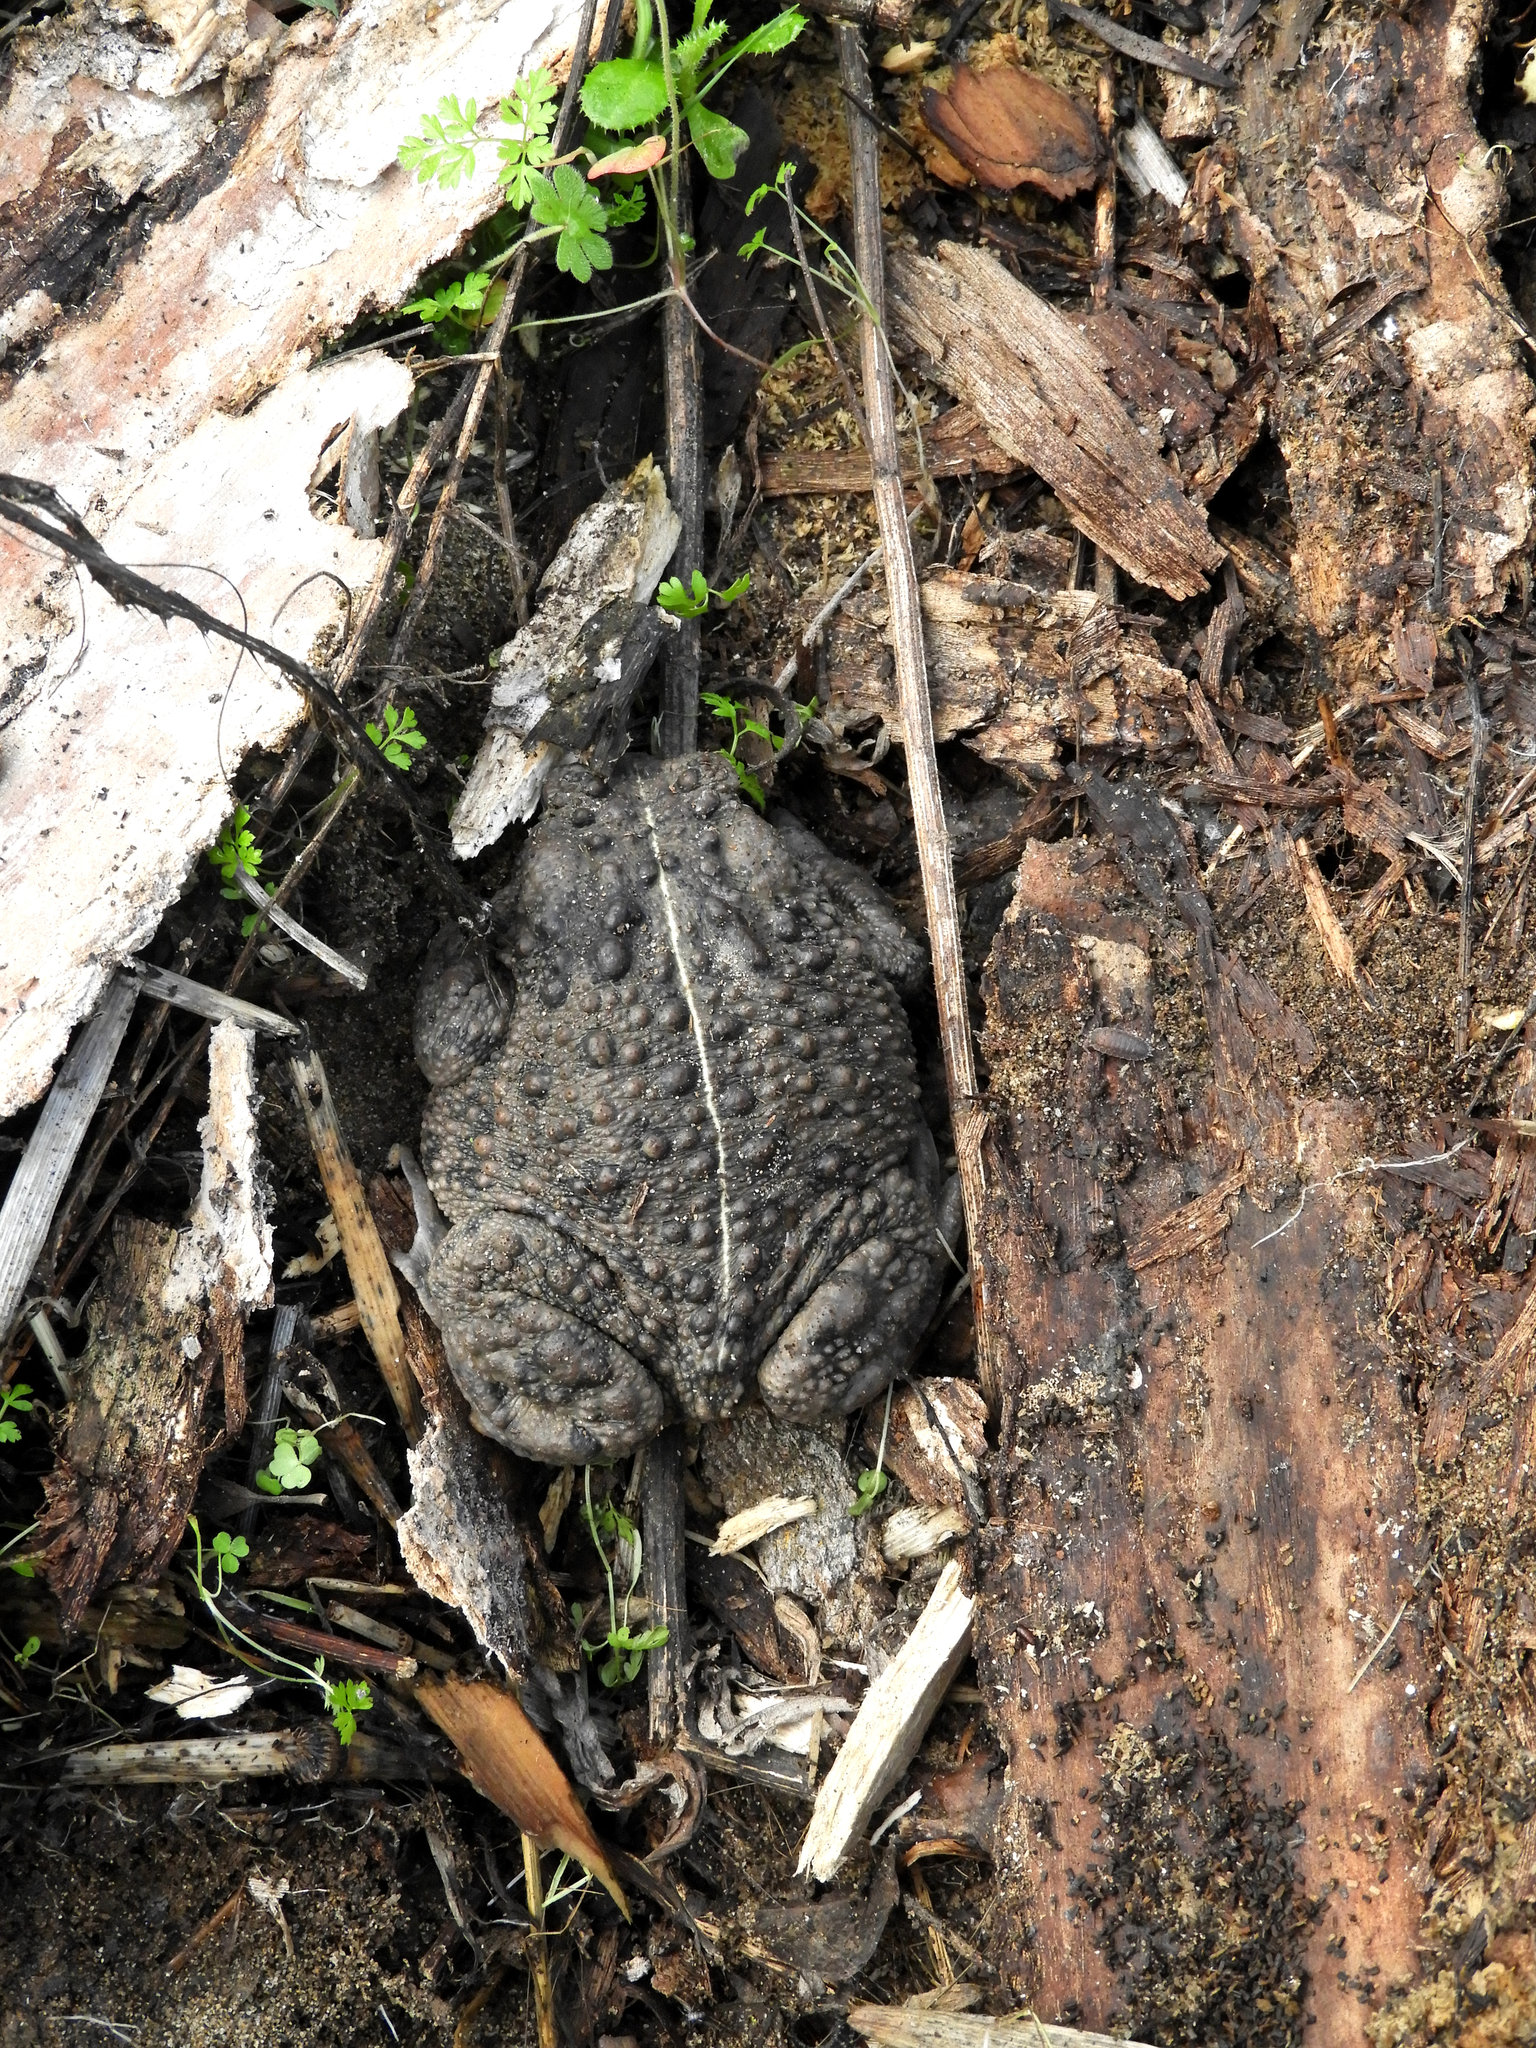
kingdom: Animalia
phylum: Chordata
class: Amphibia
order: Anura
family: Bufonidae
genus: Anaxyrus
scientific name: Anaxyrus boreas
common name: Western toad
